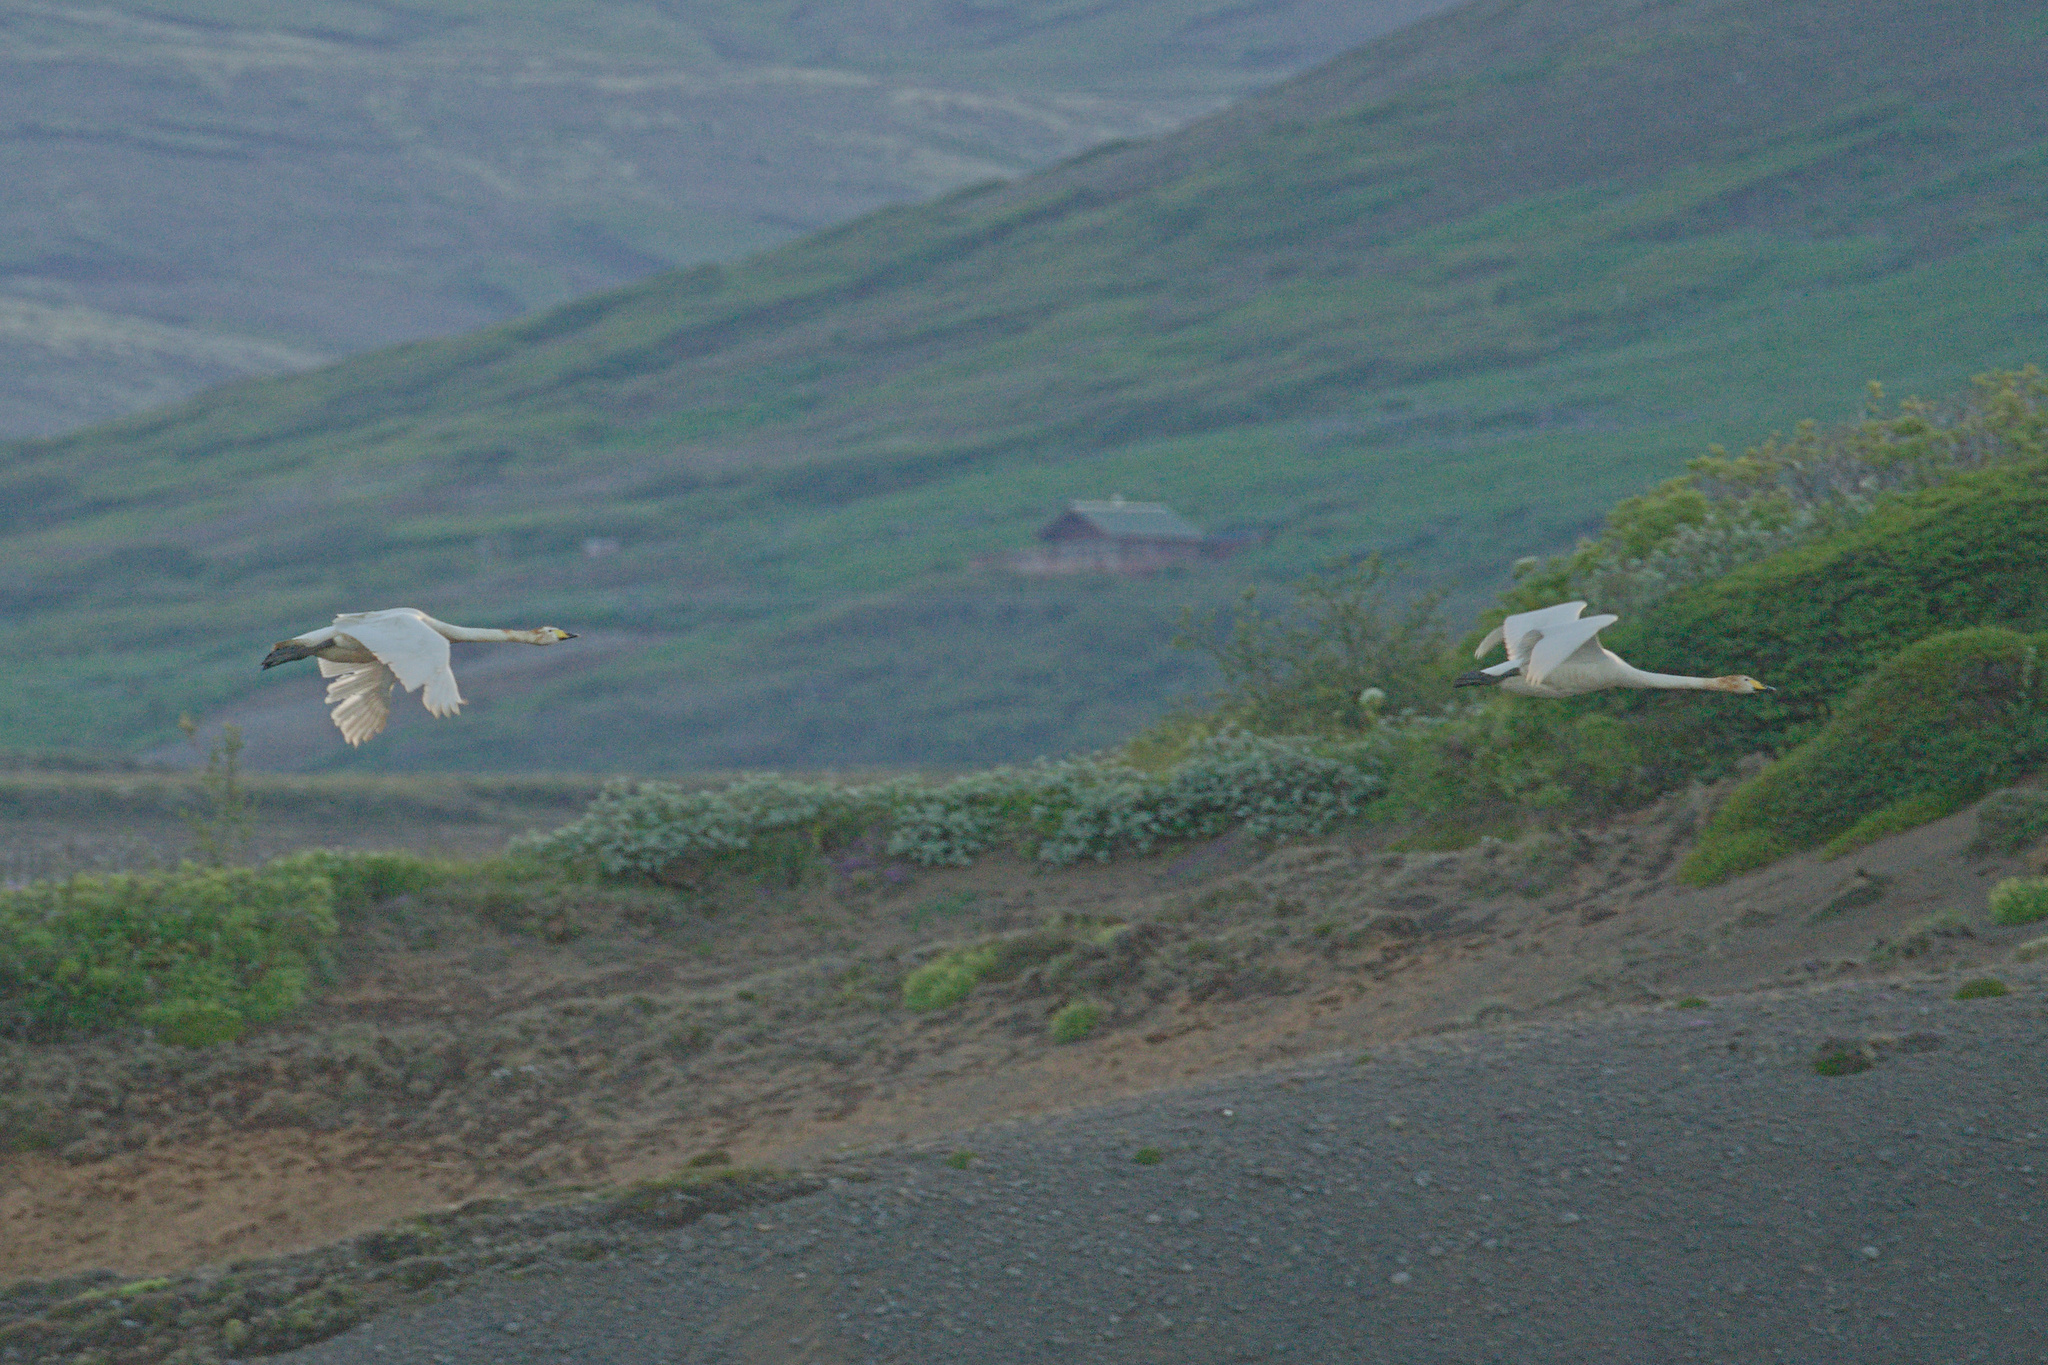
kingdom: Animalia
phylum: Chordata
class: Aves
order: Anseriformes
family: Anatidae
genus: Cygnus
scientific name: Cygnus cygnus
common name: Whooper swan
